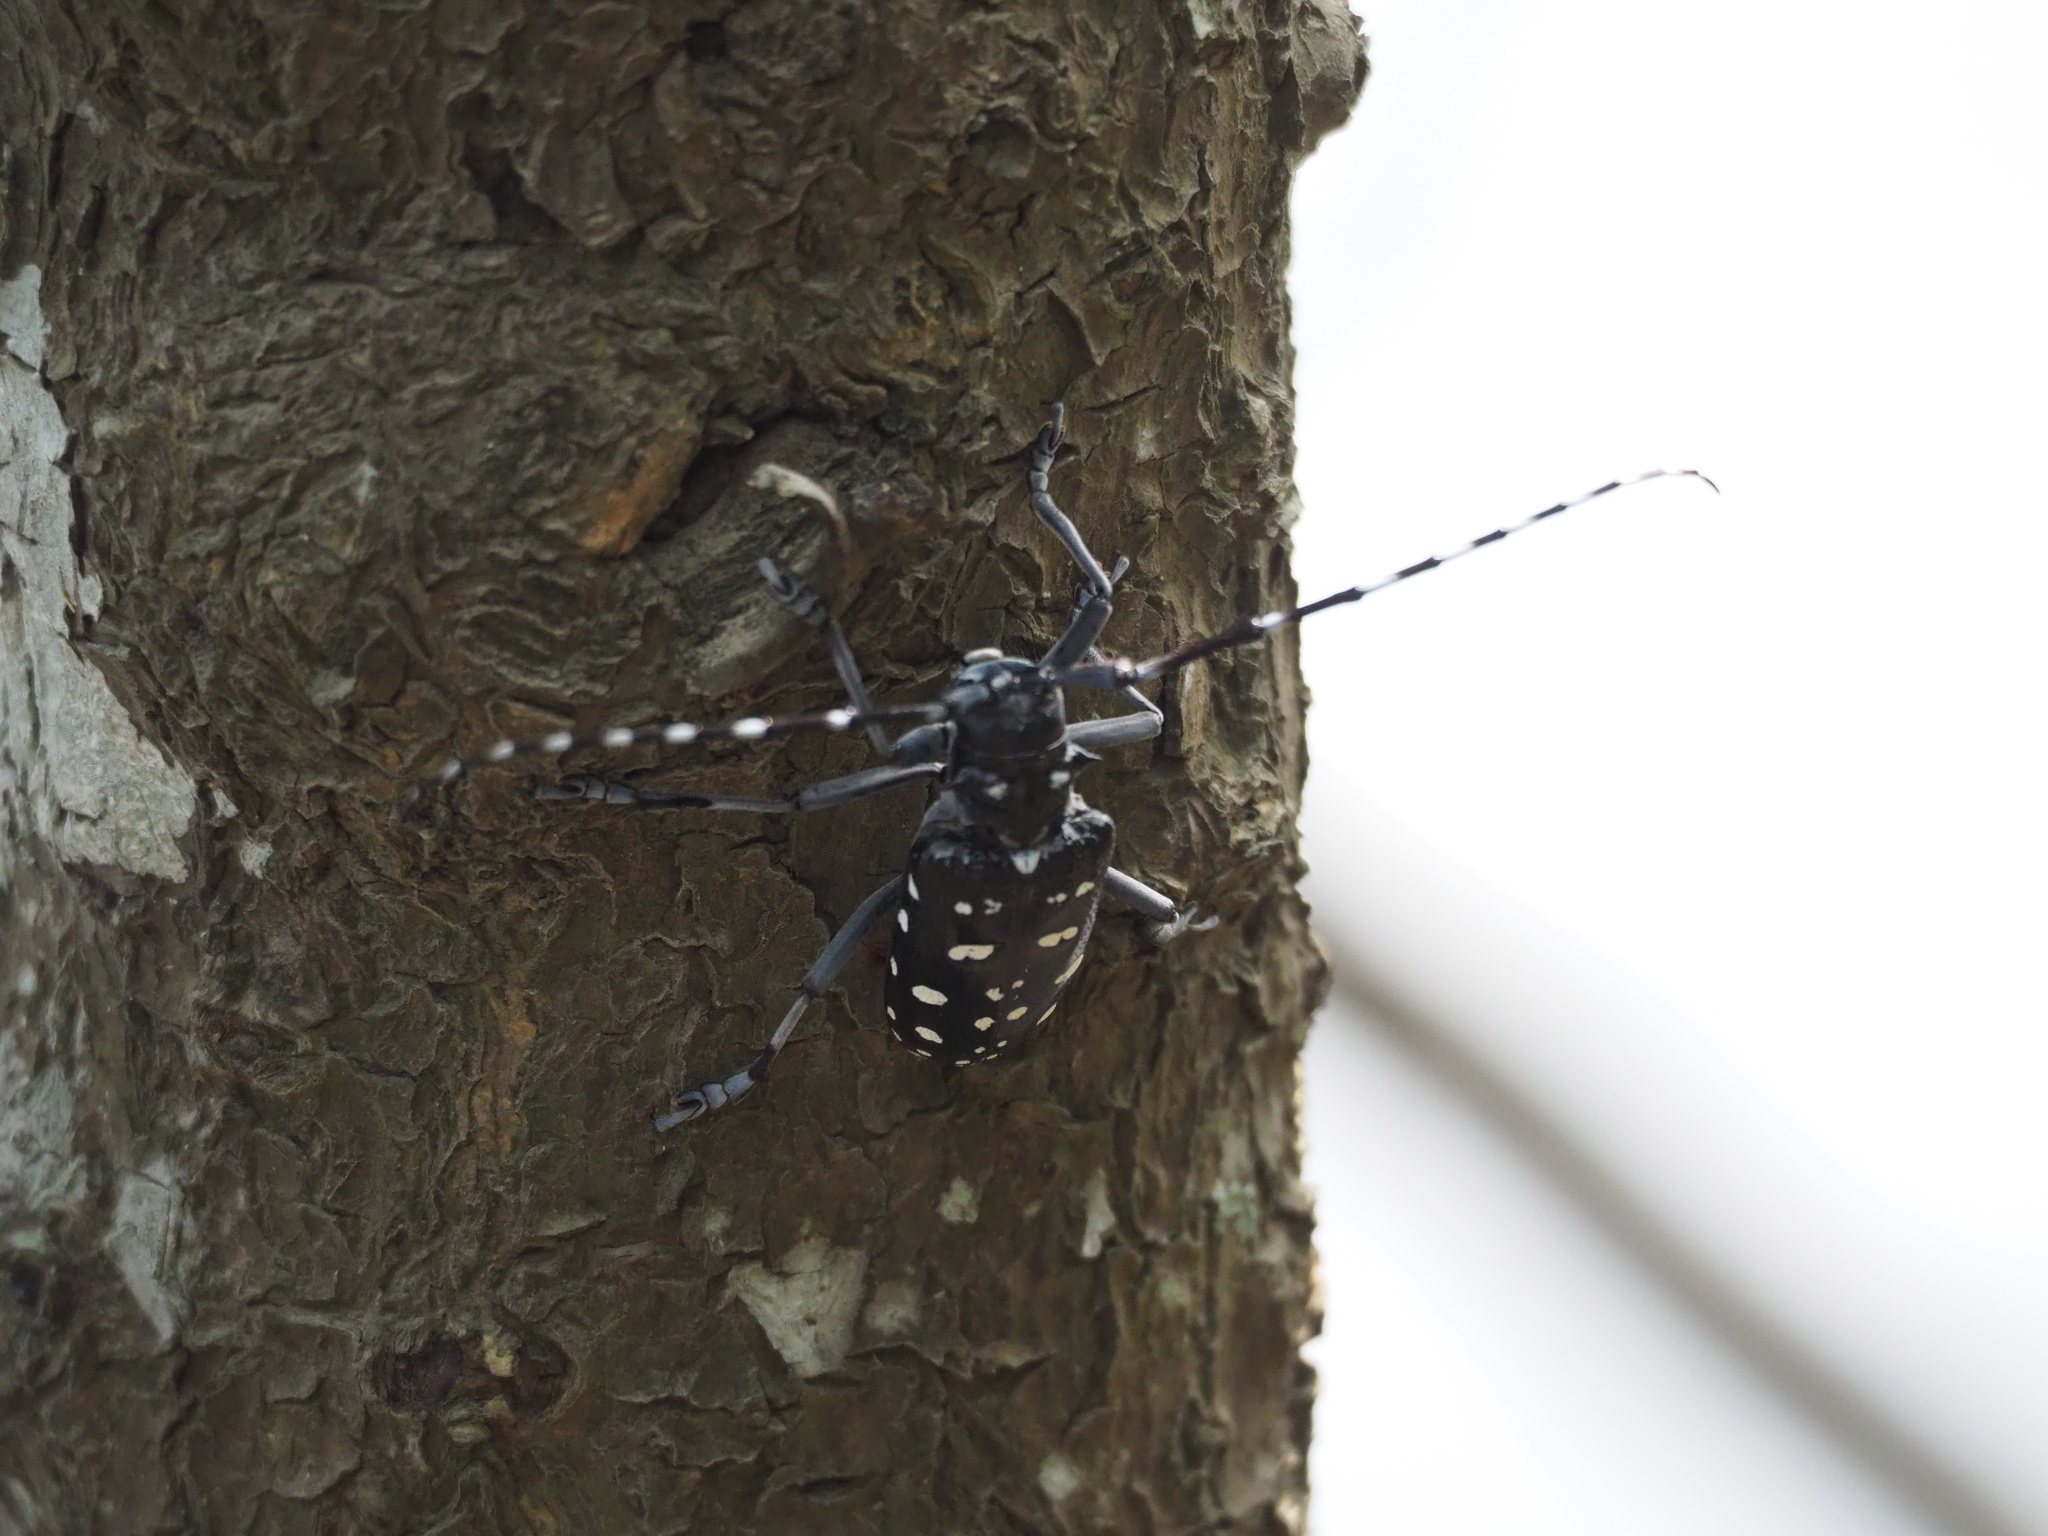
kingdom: Animalia
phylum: Arthropoda
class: Insecta
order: Coleoptera
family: Cerambycidae
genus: Anoplophora
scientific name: Anoplophora macularia
